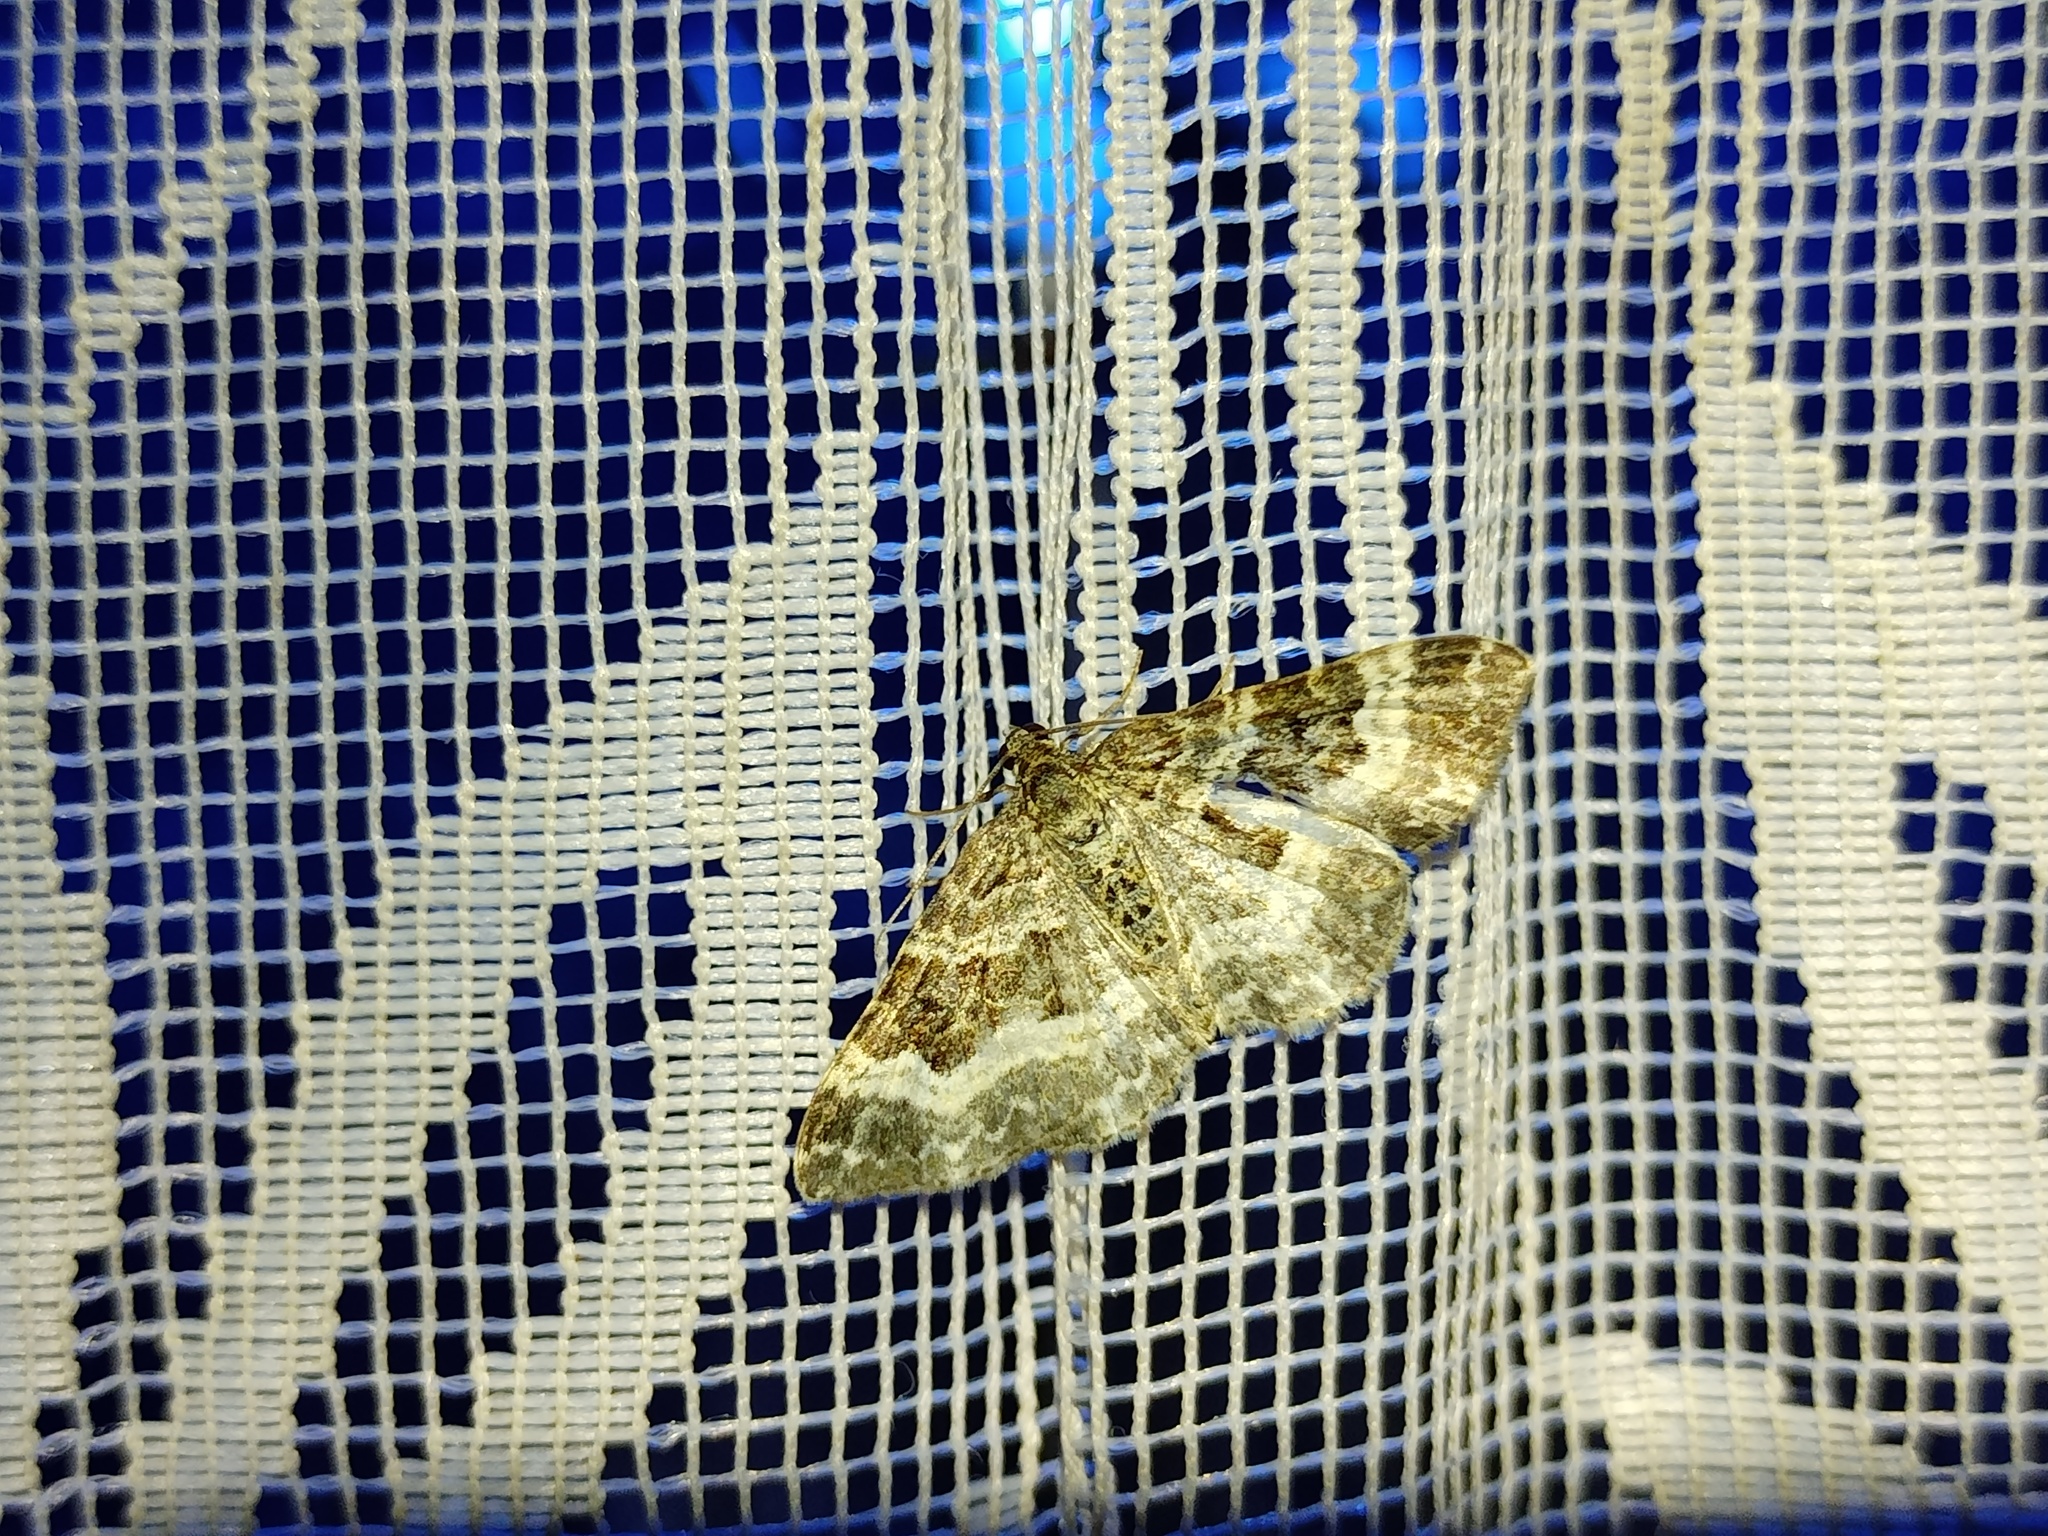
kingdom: Animalia
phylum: Arthropoda
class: Insecta
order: Lepidoptera
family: Geometridae
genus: Epirrhoe
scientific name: Epirrhoe alternata
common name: Common carpet
